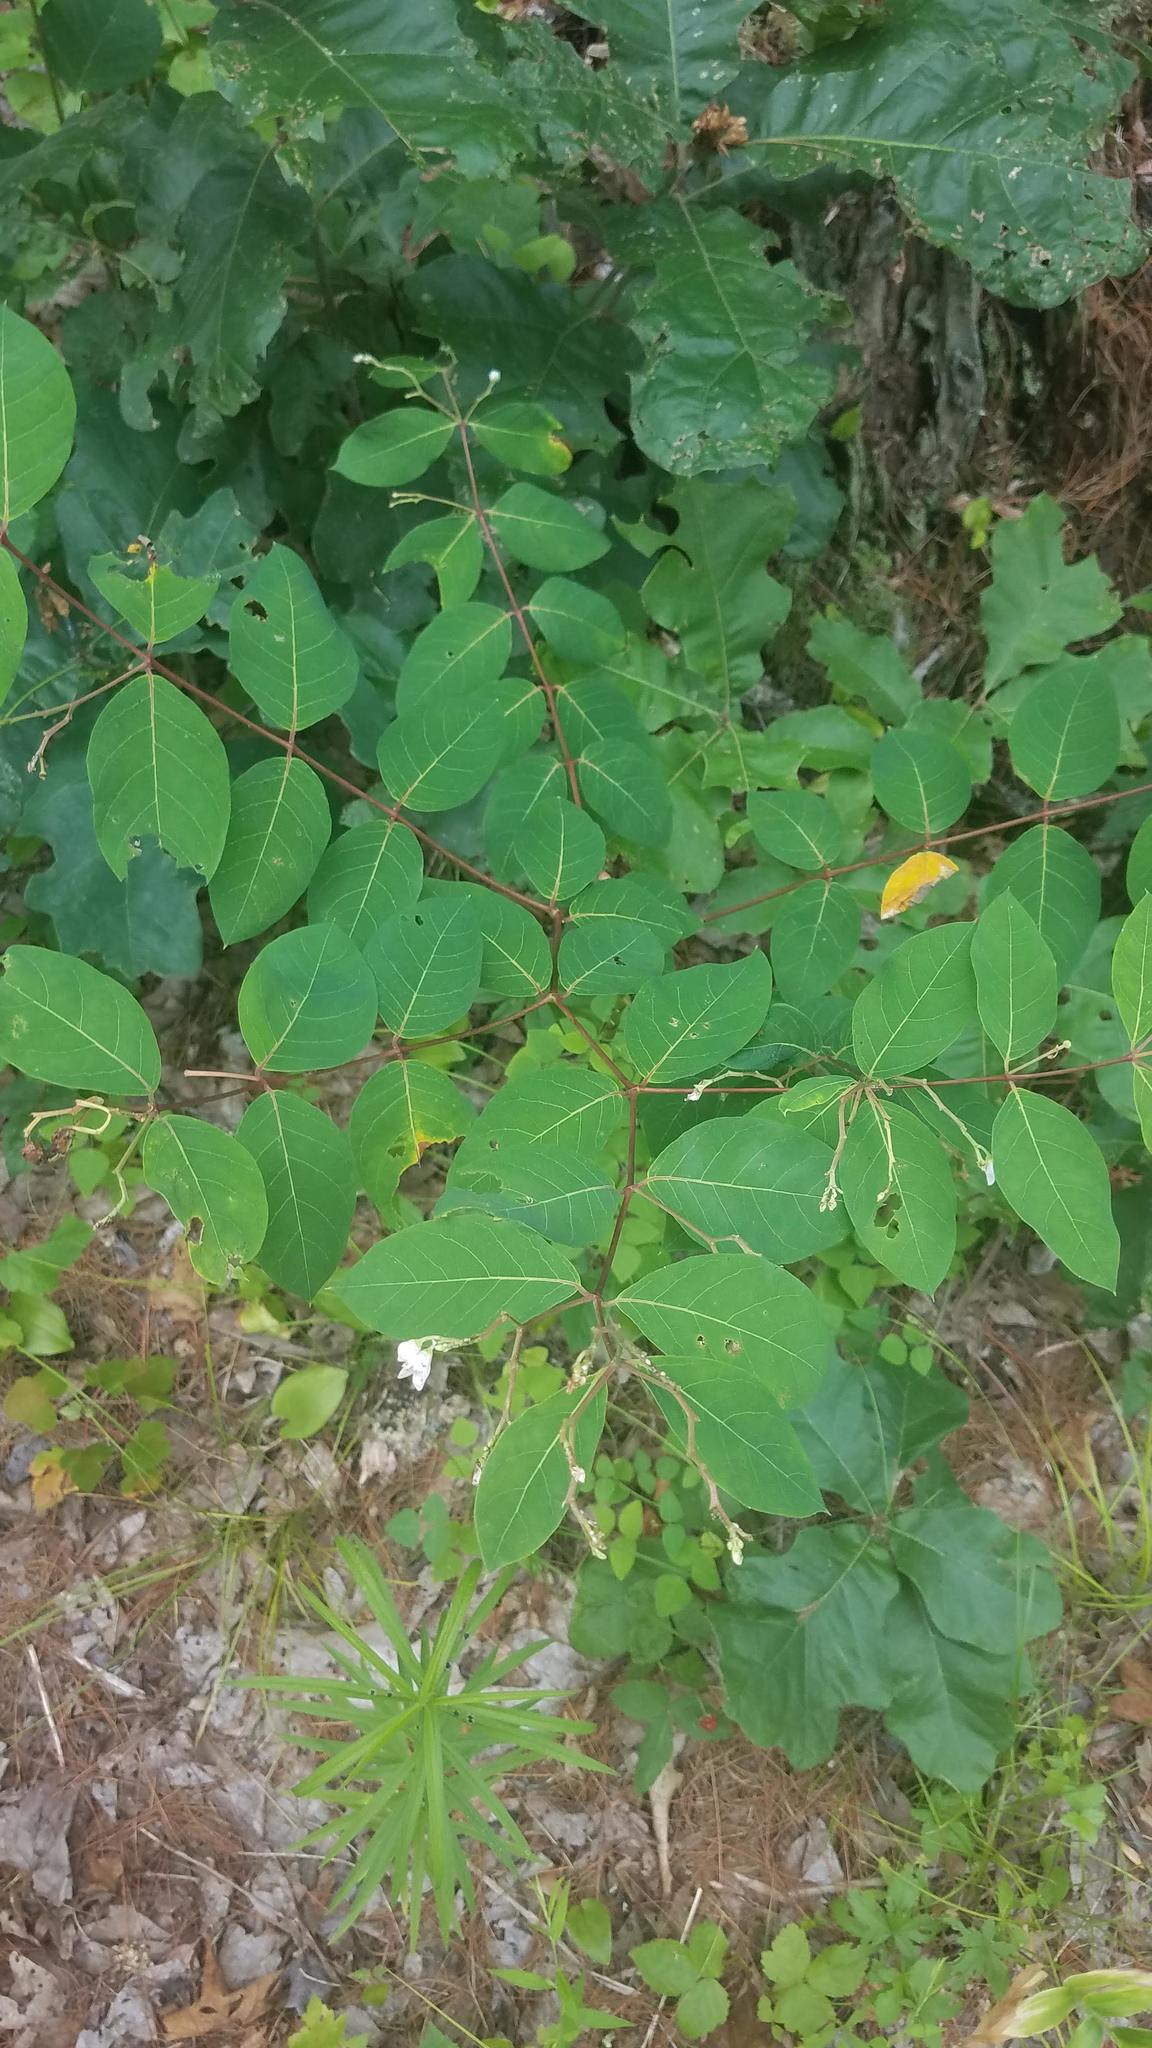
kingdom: Plantae
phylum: Tracheophyta
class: Magnoliopsida
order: Gentianales
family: Apocynaceae
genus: Apocynum
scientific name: Apocynum androsaemifolium
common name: Spreading dogbane
